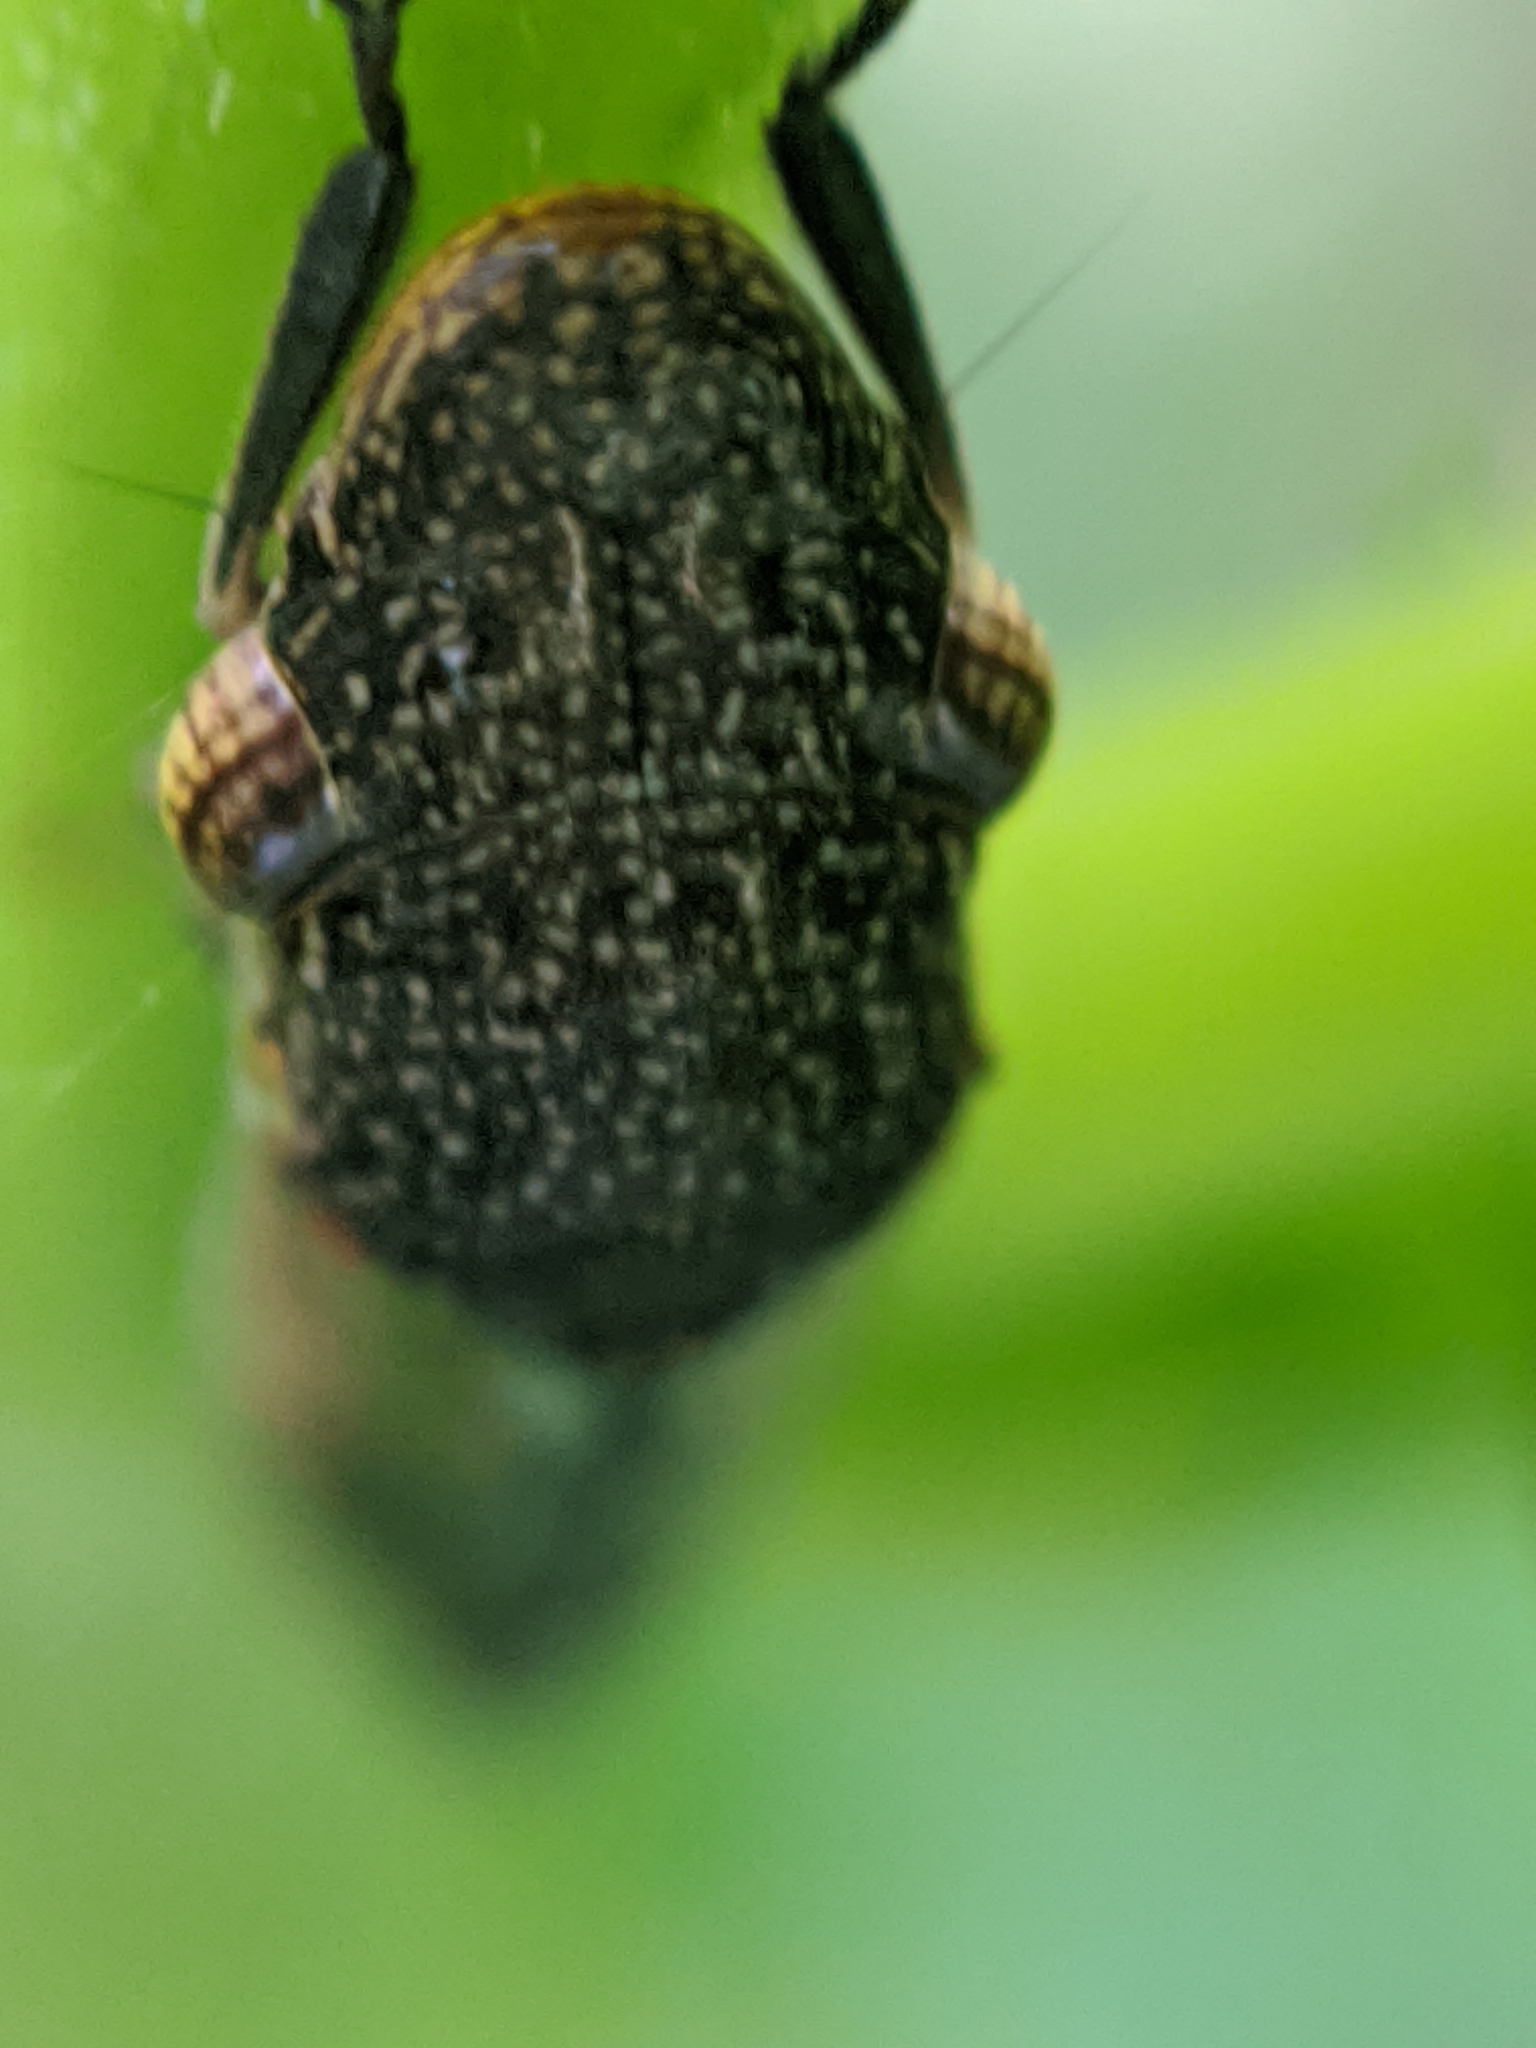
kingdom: Animalia
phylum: Arthropoda
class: Insecta
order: Hemiptera
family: Cicadellidae
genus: Homalodisca
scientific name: Homalodisca vitripennis
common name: Glassy-winged sharpshooter
